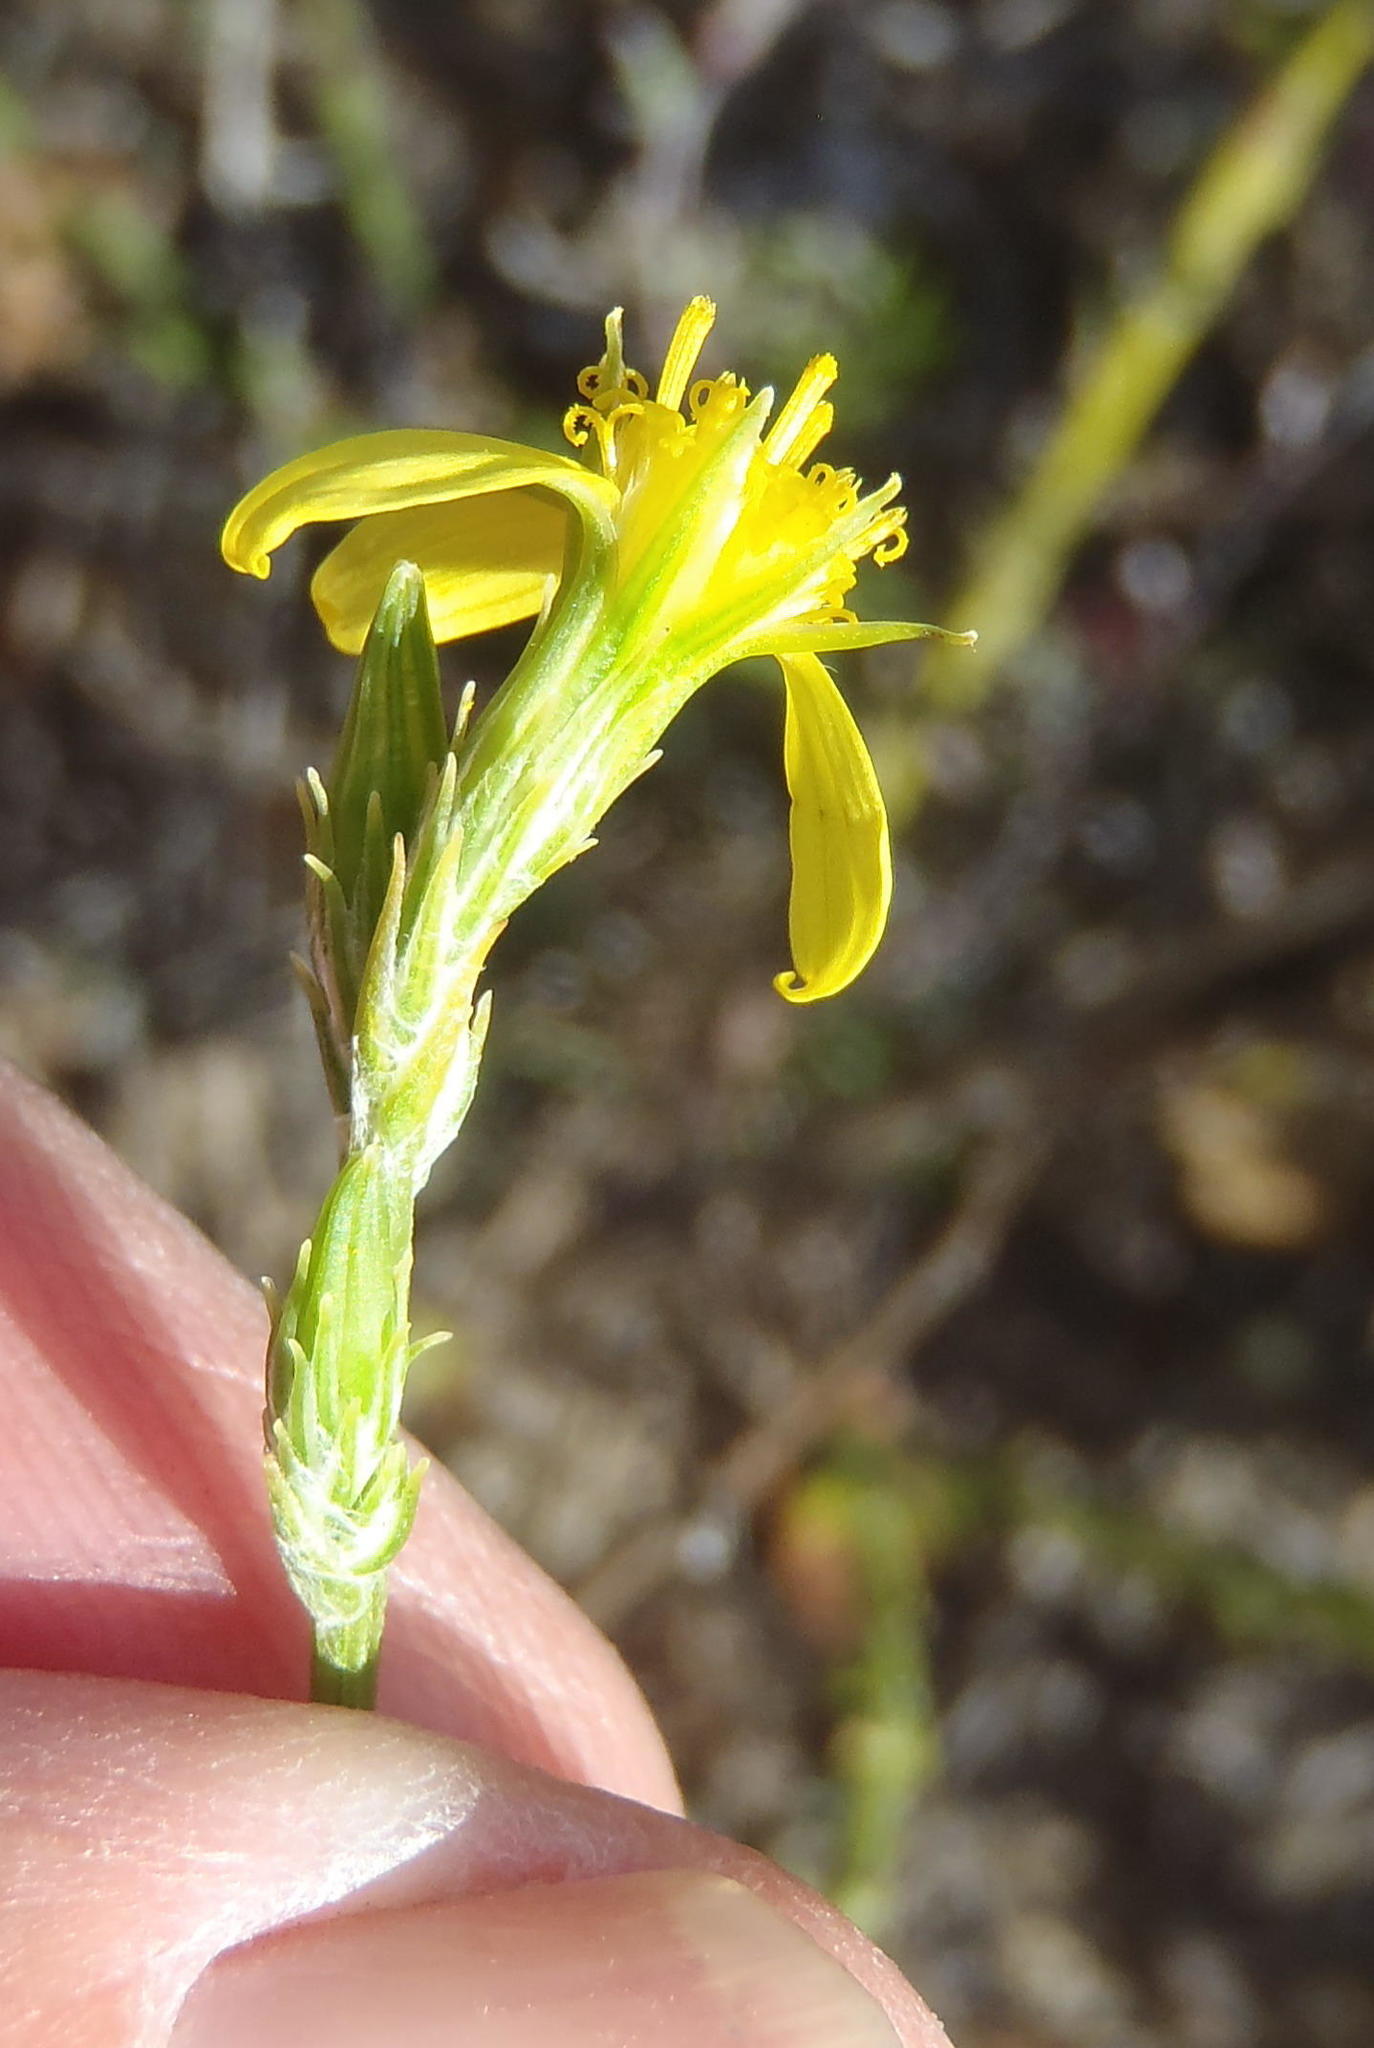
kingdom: Plantae
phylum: Tracheophyta
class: Magnoliopsida
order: Asterales
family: Asteraceae
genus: Senecio
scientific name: Senecio pubigerus
